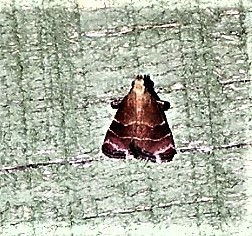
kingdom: Animalia
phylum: Arthropoda
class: Insecta
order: Lepidoptera
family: Pyralidae
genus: Arta
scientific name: Arta statalis
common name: Posturing arta moth
